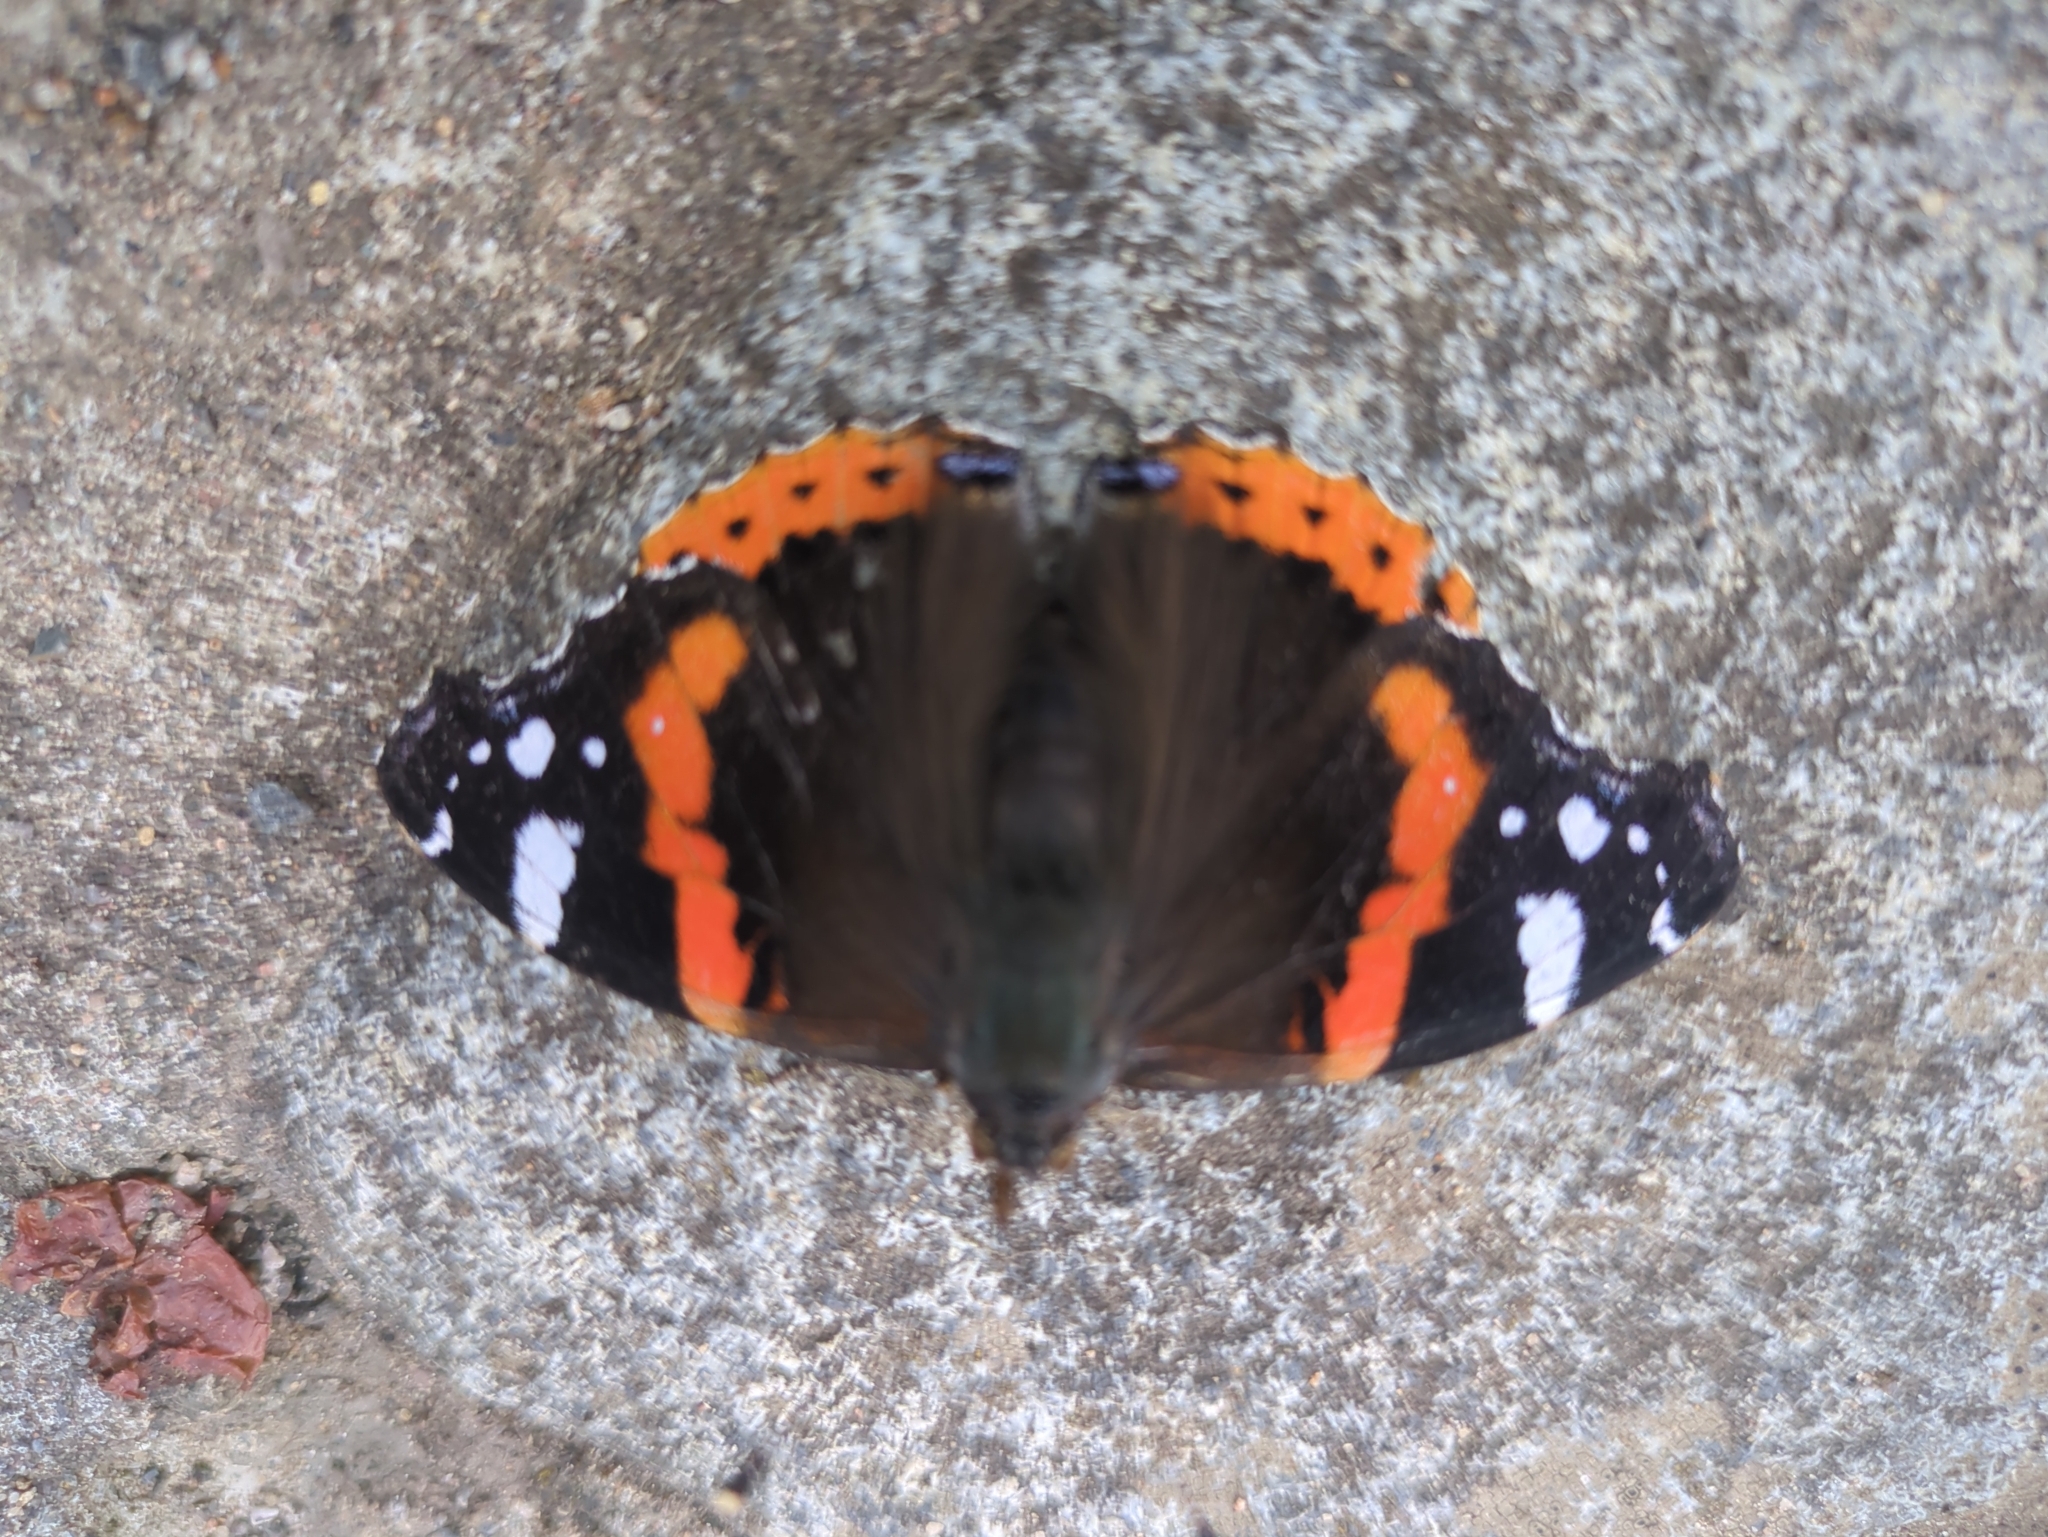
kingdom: Animalia
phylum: Arthropoda
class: Insecta
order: Lepidoptera
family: Nymphalidae
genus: Vanessa
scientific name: Vanessa atalanta
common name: Red admiral
